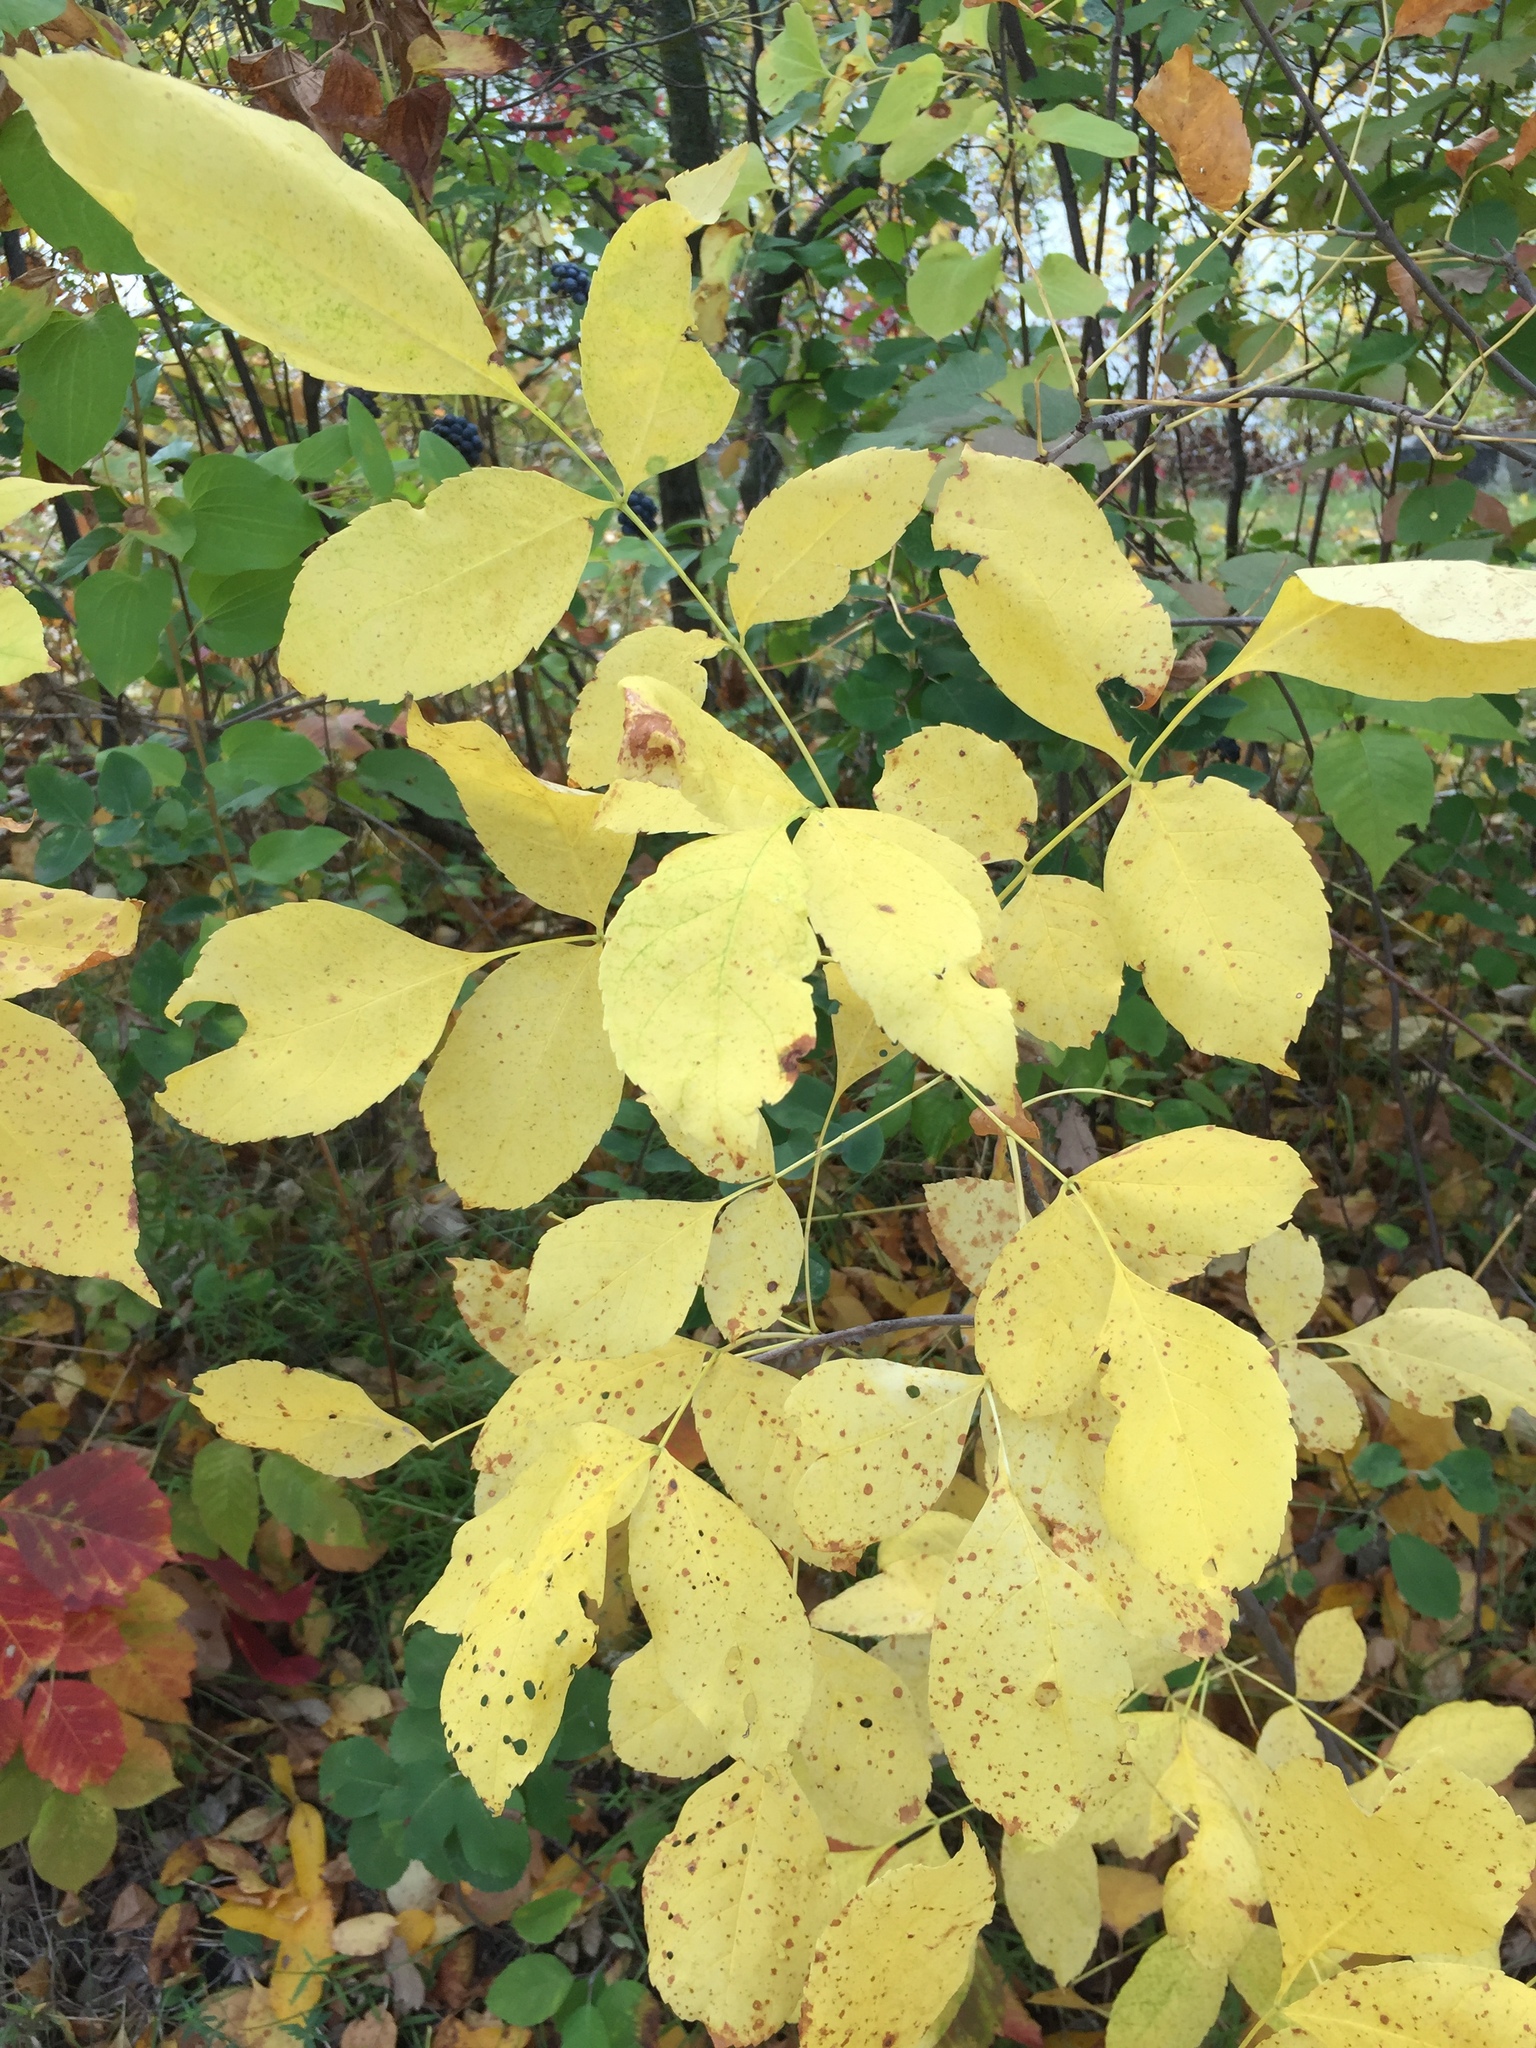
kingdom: Plantae
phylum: Tracheophyta
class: Magnoliopsida
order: Lamiales
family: Oleaceae
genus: Fraxinus
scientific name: Fraxinus pennsylvanica
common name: Green ash
